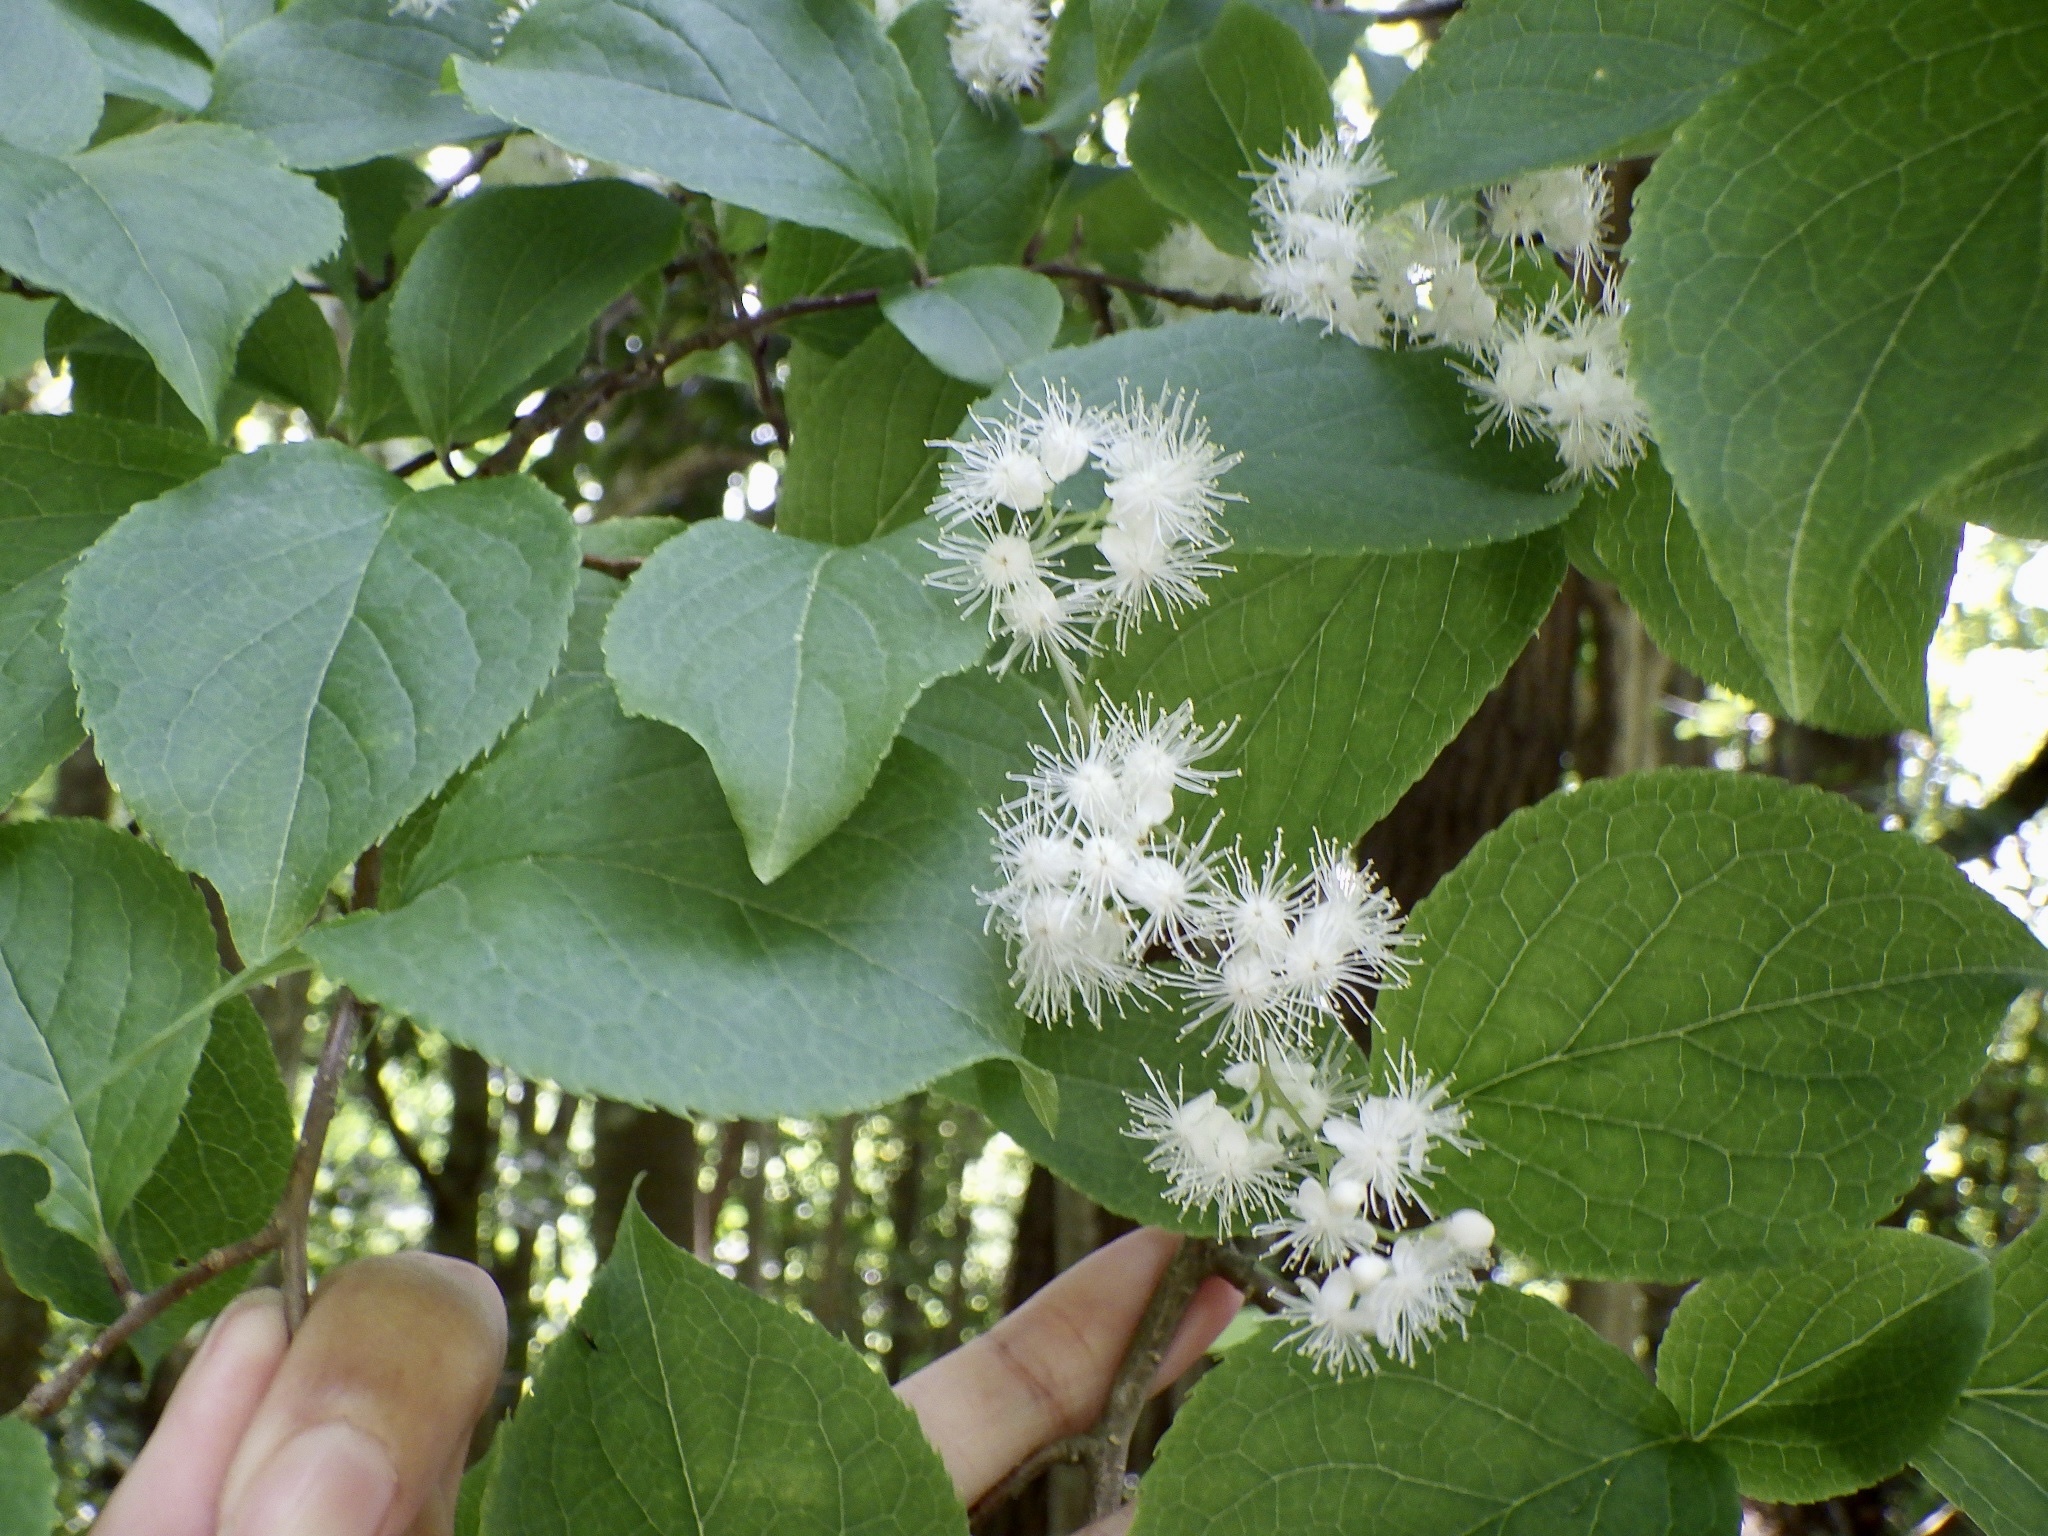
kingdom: Plantae
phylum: Tracheophyta
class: Magnoliopsida
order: Ericales
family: Symplocaceae
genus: Symplocos
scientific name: Symplocos coreana
